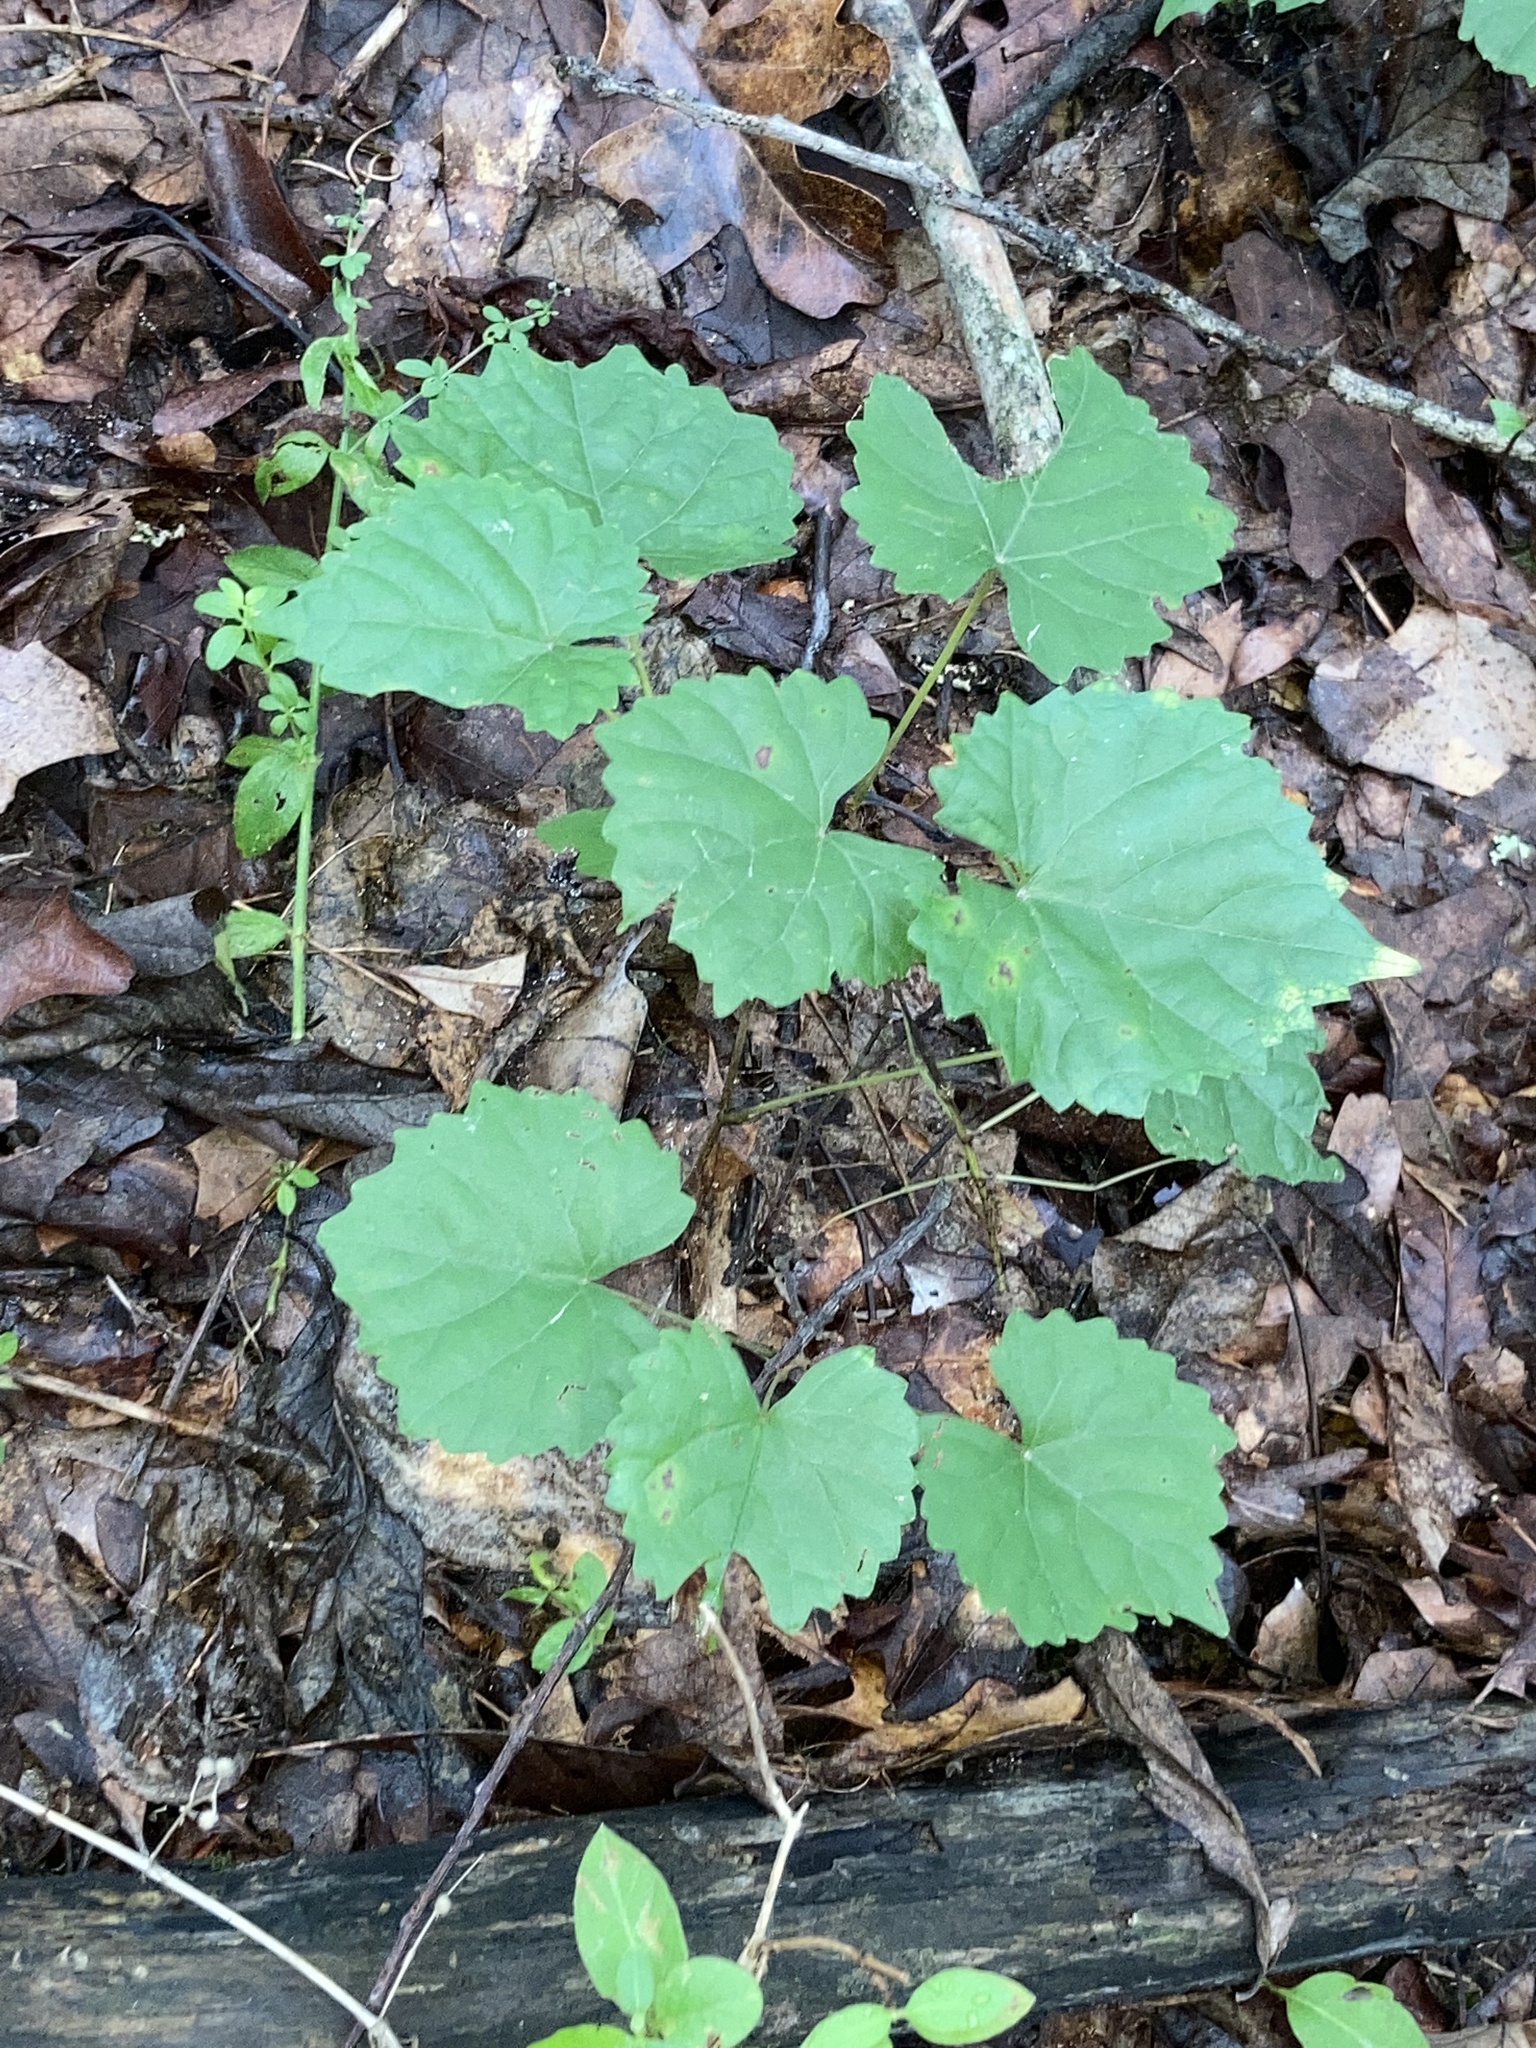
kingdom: Plantae
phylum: Tracheophyta
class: Magnoliopsida
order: Vitales
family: Vitaceae
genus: Vitis
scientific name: Vitis rotundifolia
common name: Muscadine grape
